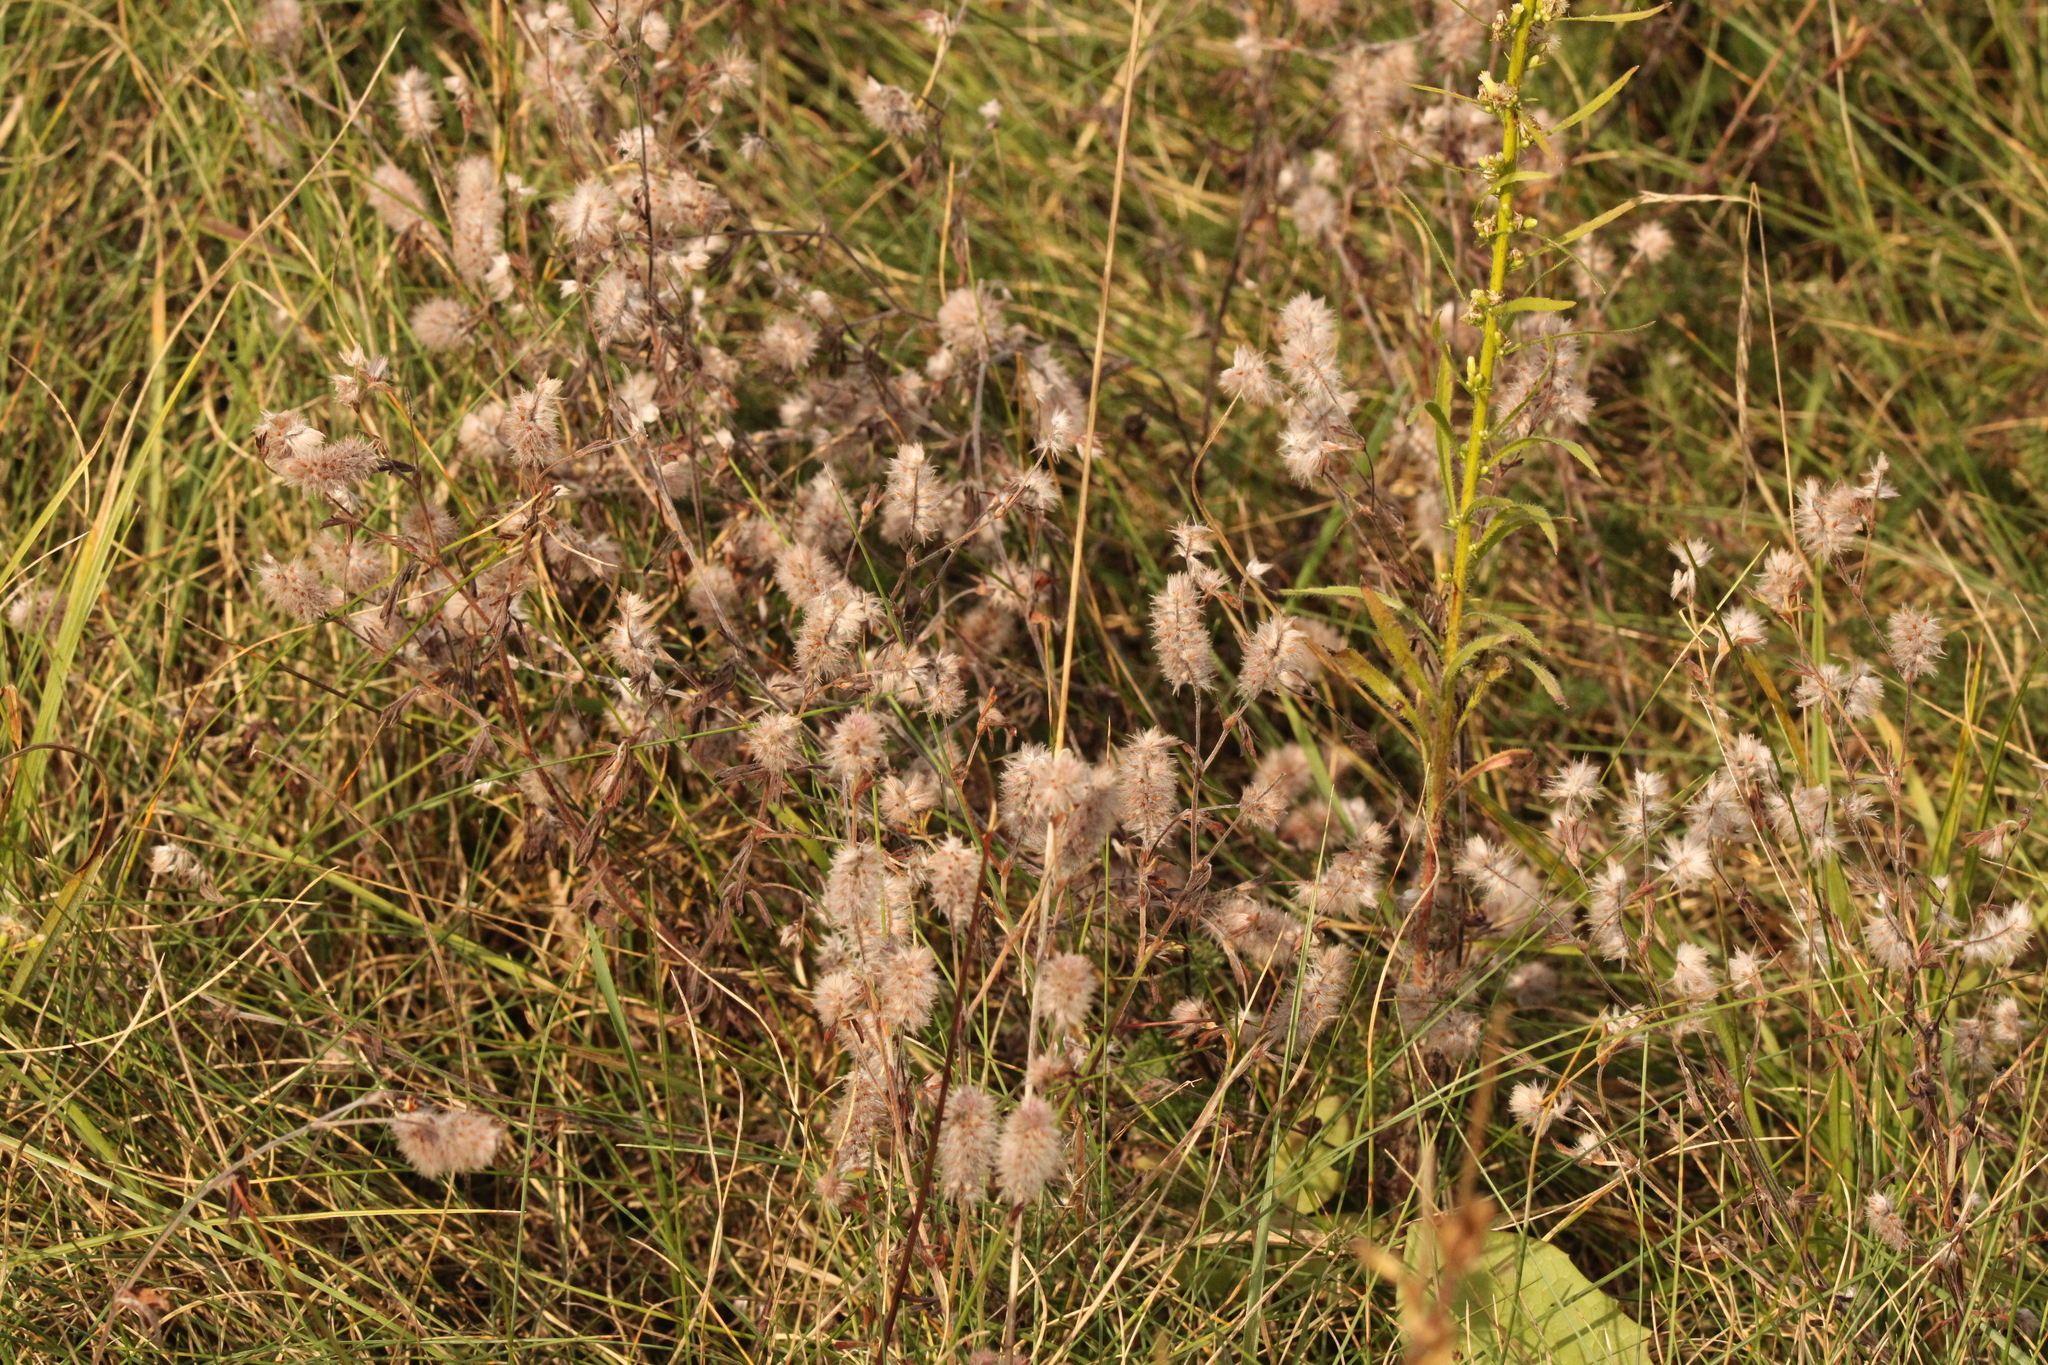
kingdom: Plantae
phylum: Tracheophyta
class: Magnoliopsida
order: Fabales
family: Fabaceae
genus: Trifolium
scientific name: Trifolium arvense
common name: Hare's-foot clover
